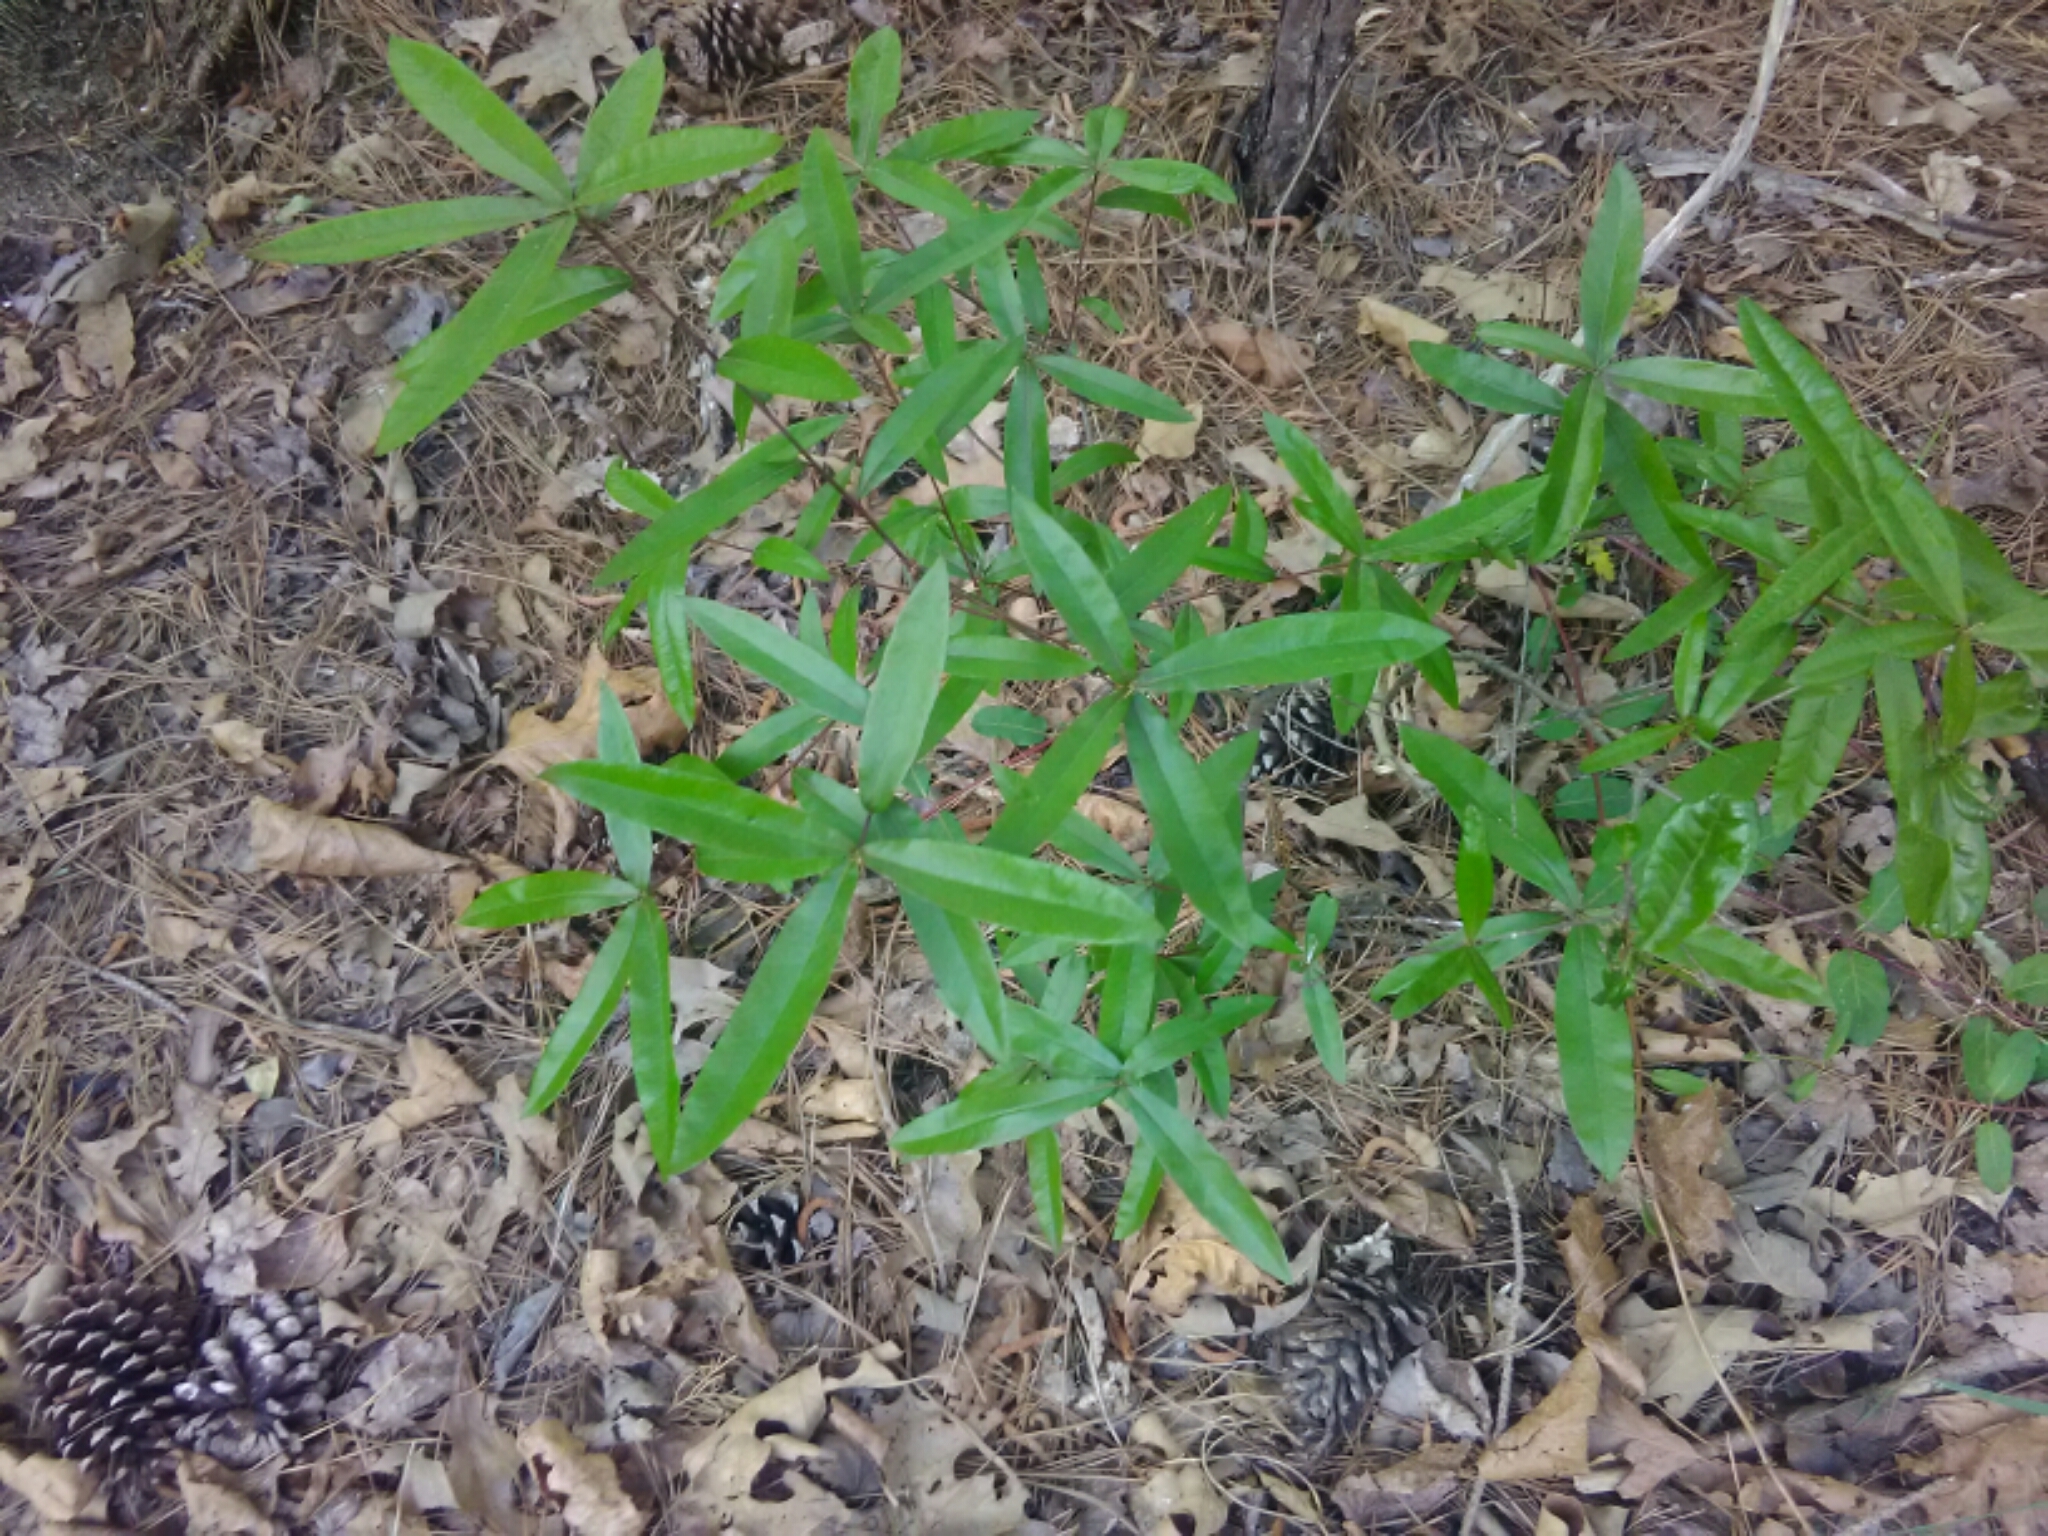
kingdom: Plantae
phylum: Tracheophyta
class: Magnoliopsida
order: Fagales
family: Fagaceae
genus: Quercus
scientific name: Quercus phellos
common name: Willow oak
